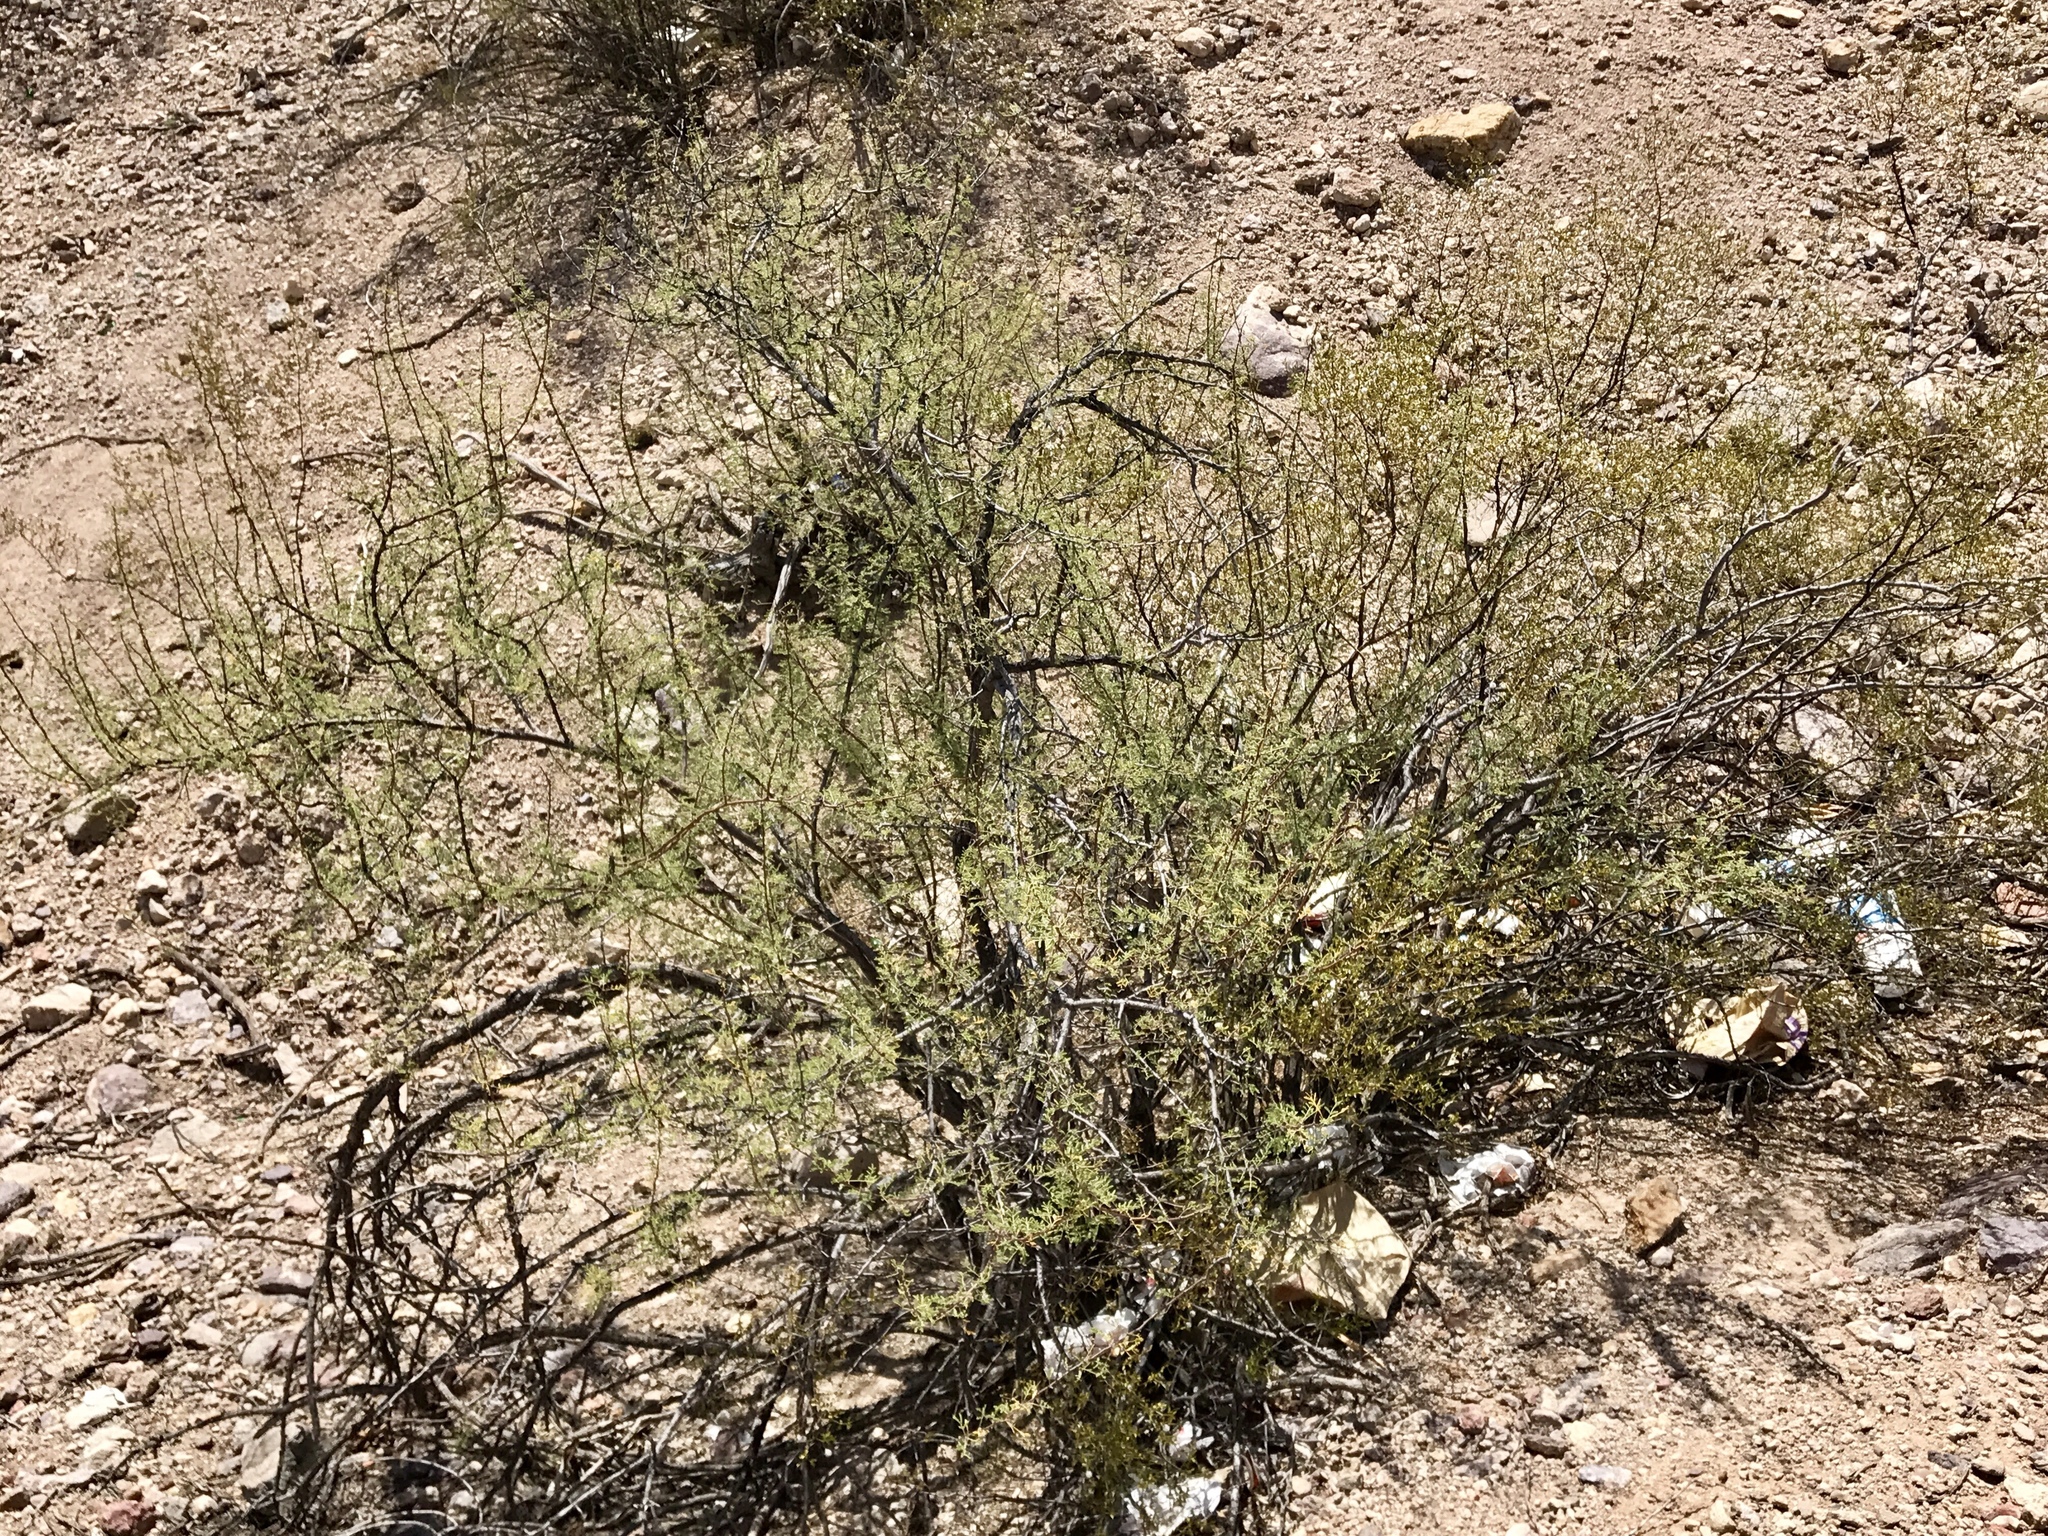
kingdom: Plantae
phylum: Tracheophyta
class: Magnoliopsida
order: Fabales
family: Fabaceae
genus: Vachellia
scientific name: Vachellia constricta
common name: Mescat acacia
